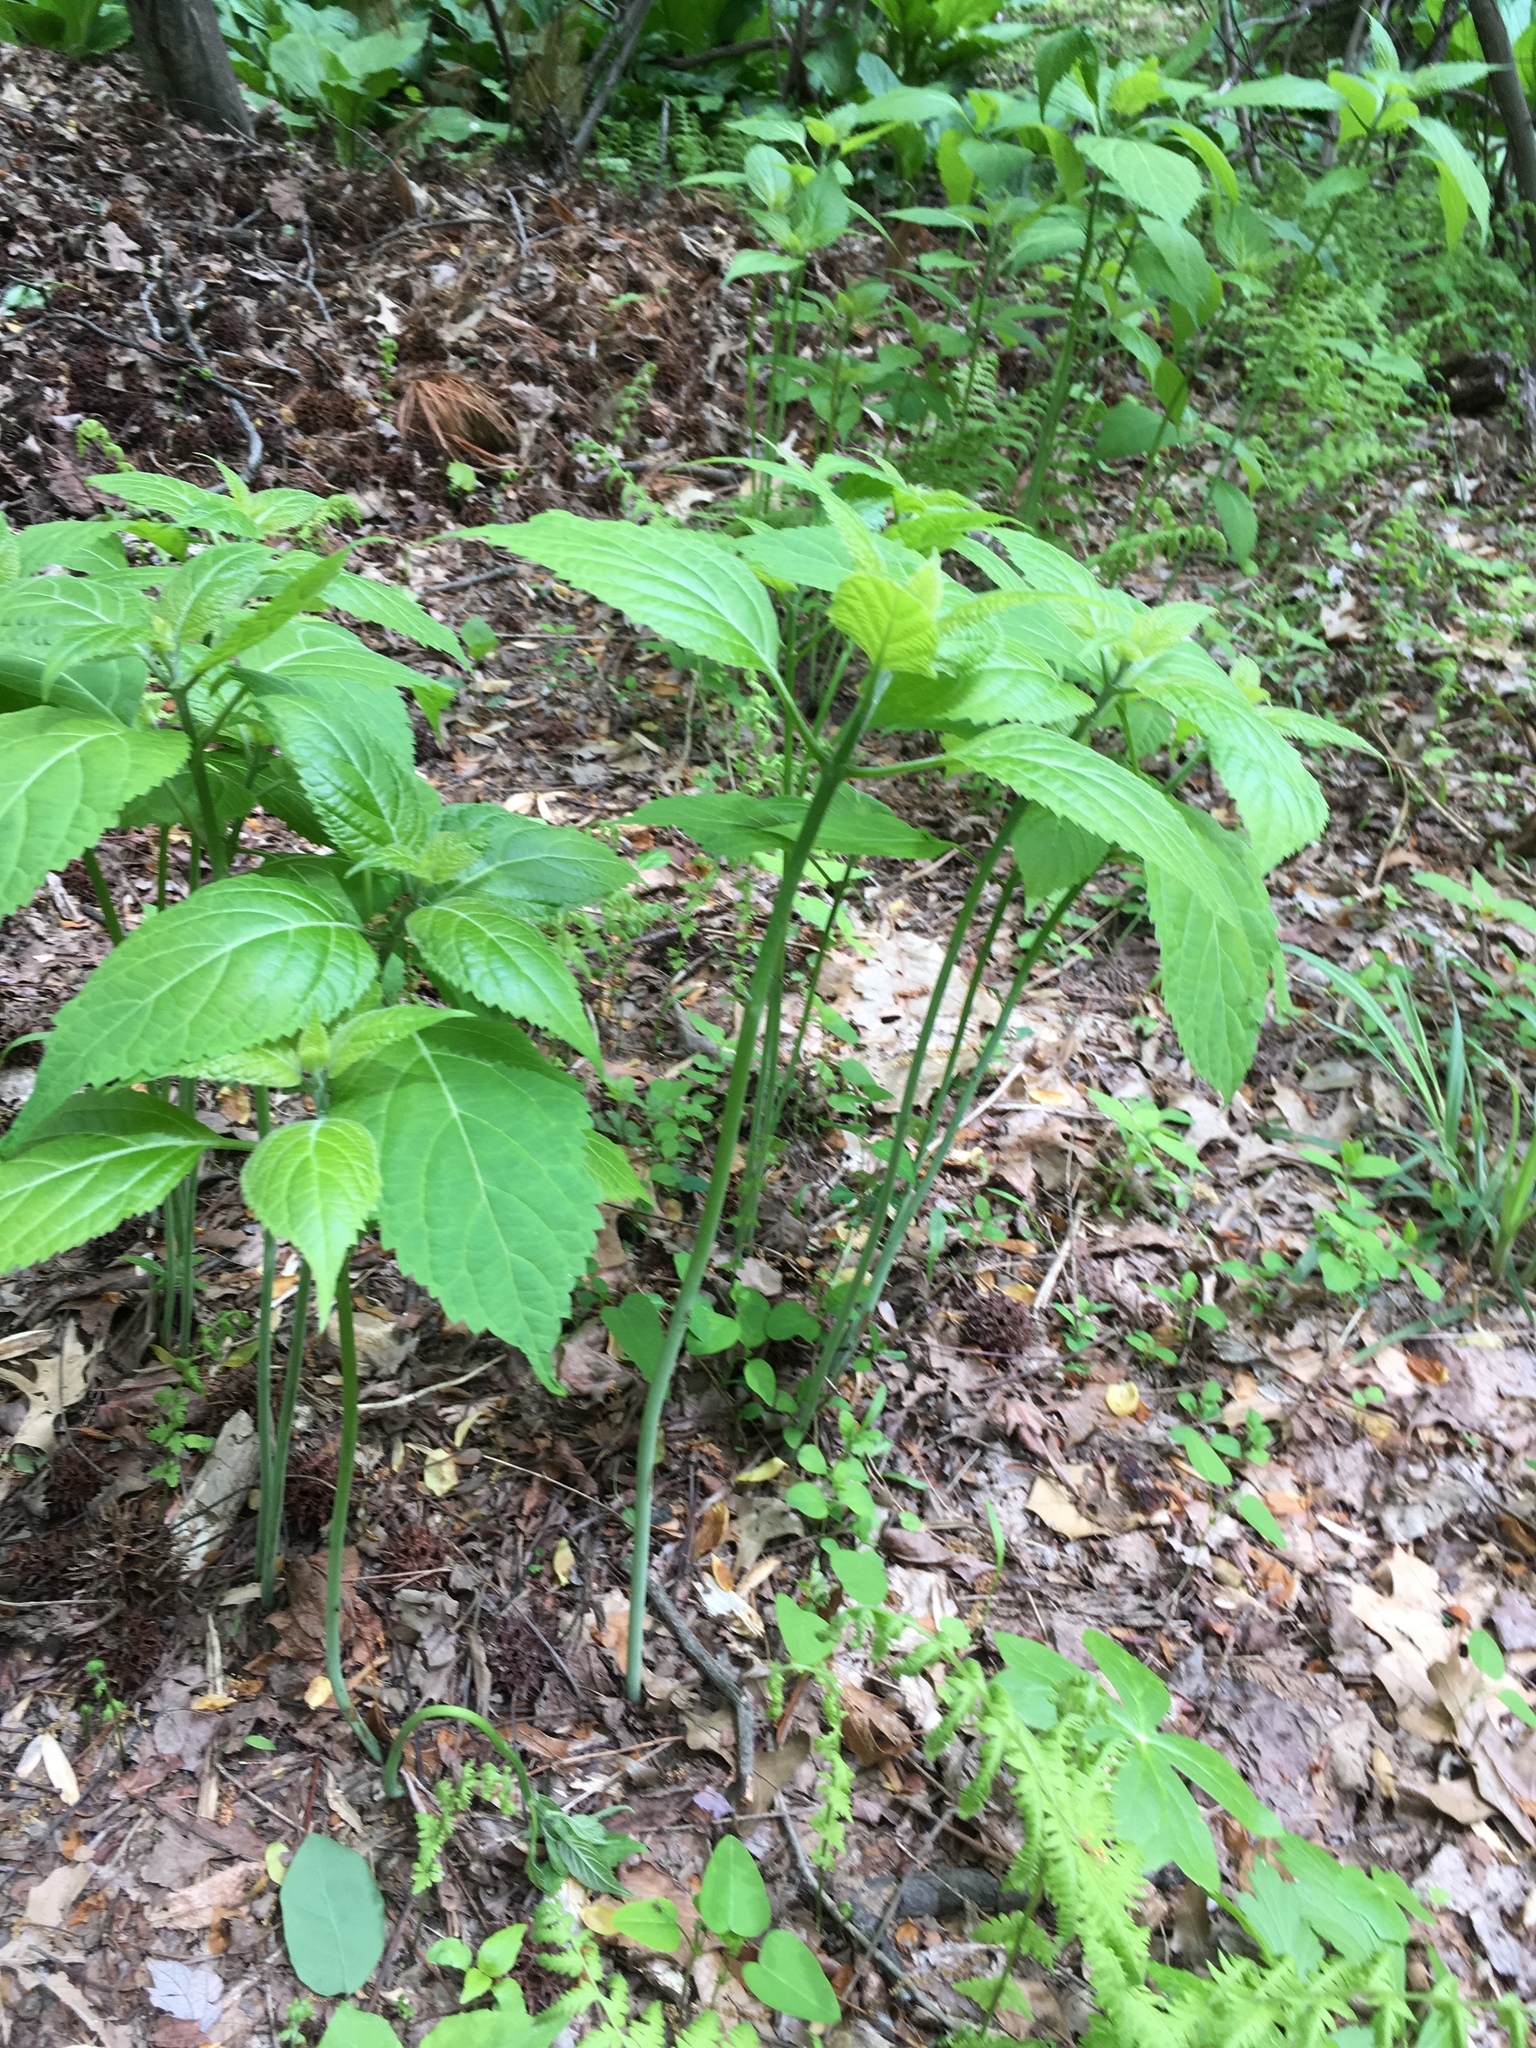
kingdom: Plantae
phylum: Tracheophyta
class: Magnoliopsida
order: Asterales
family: Asteraceae
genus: Ageratina
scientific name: Ageratina altissima
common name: White snakeroot
